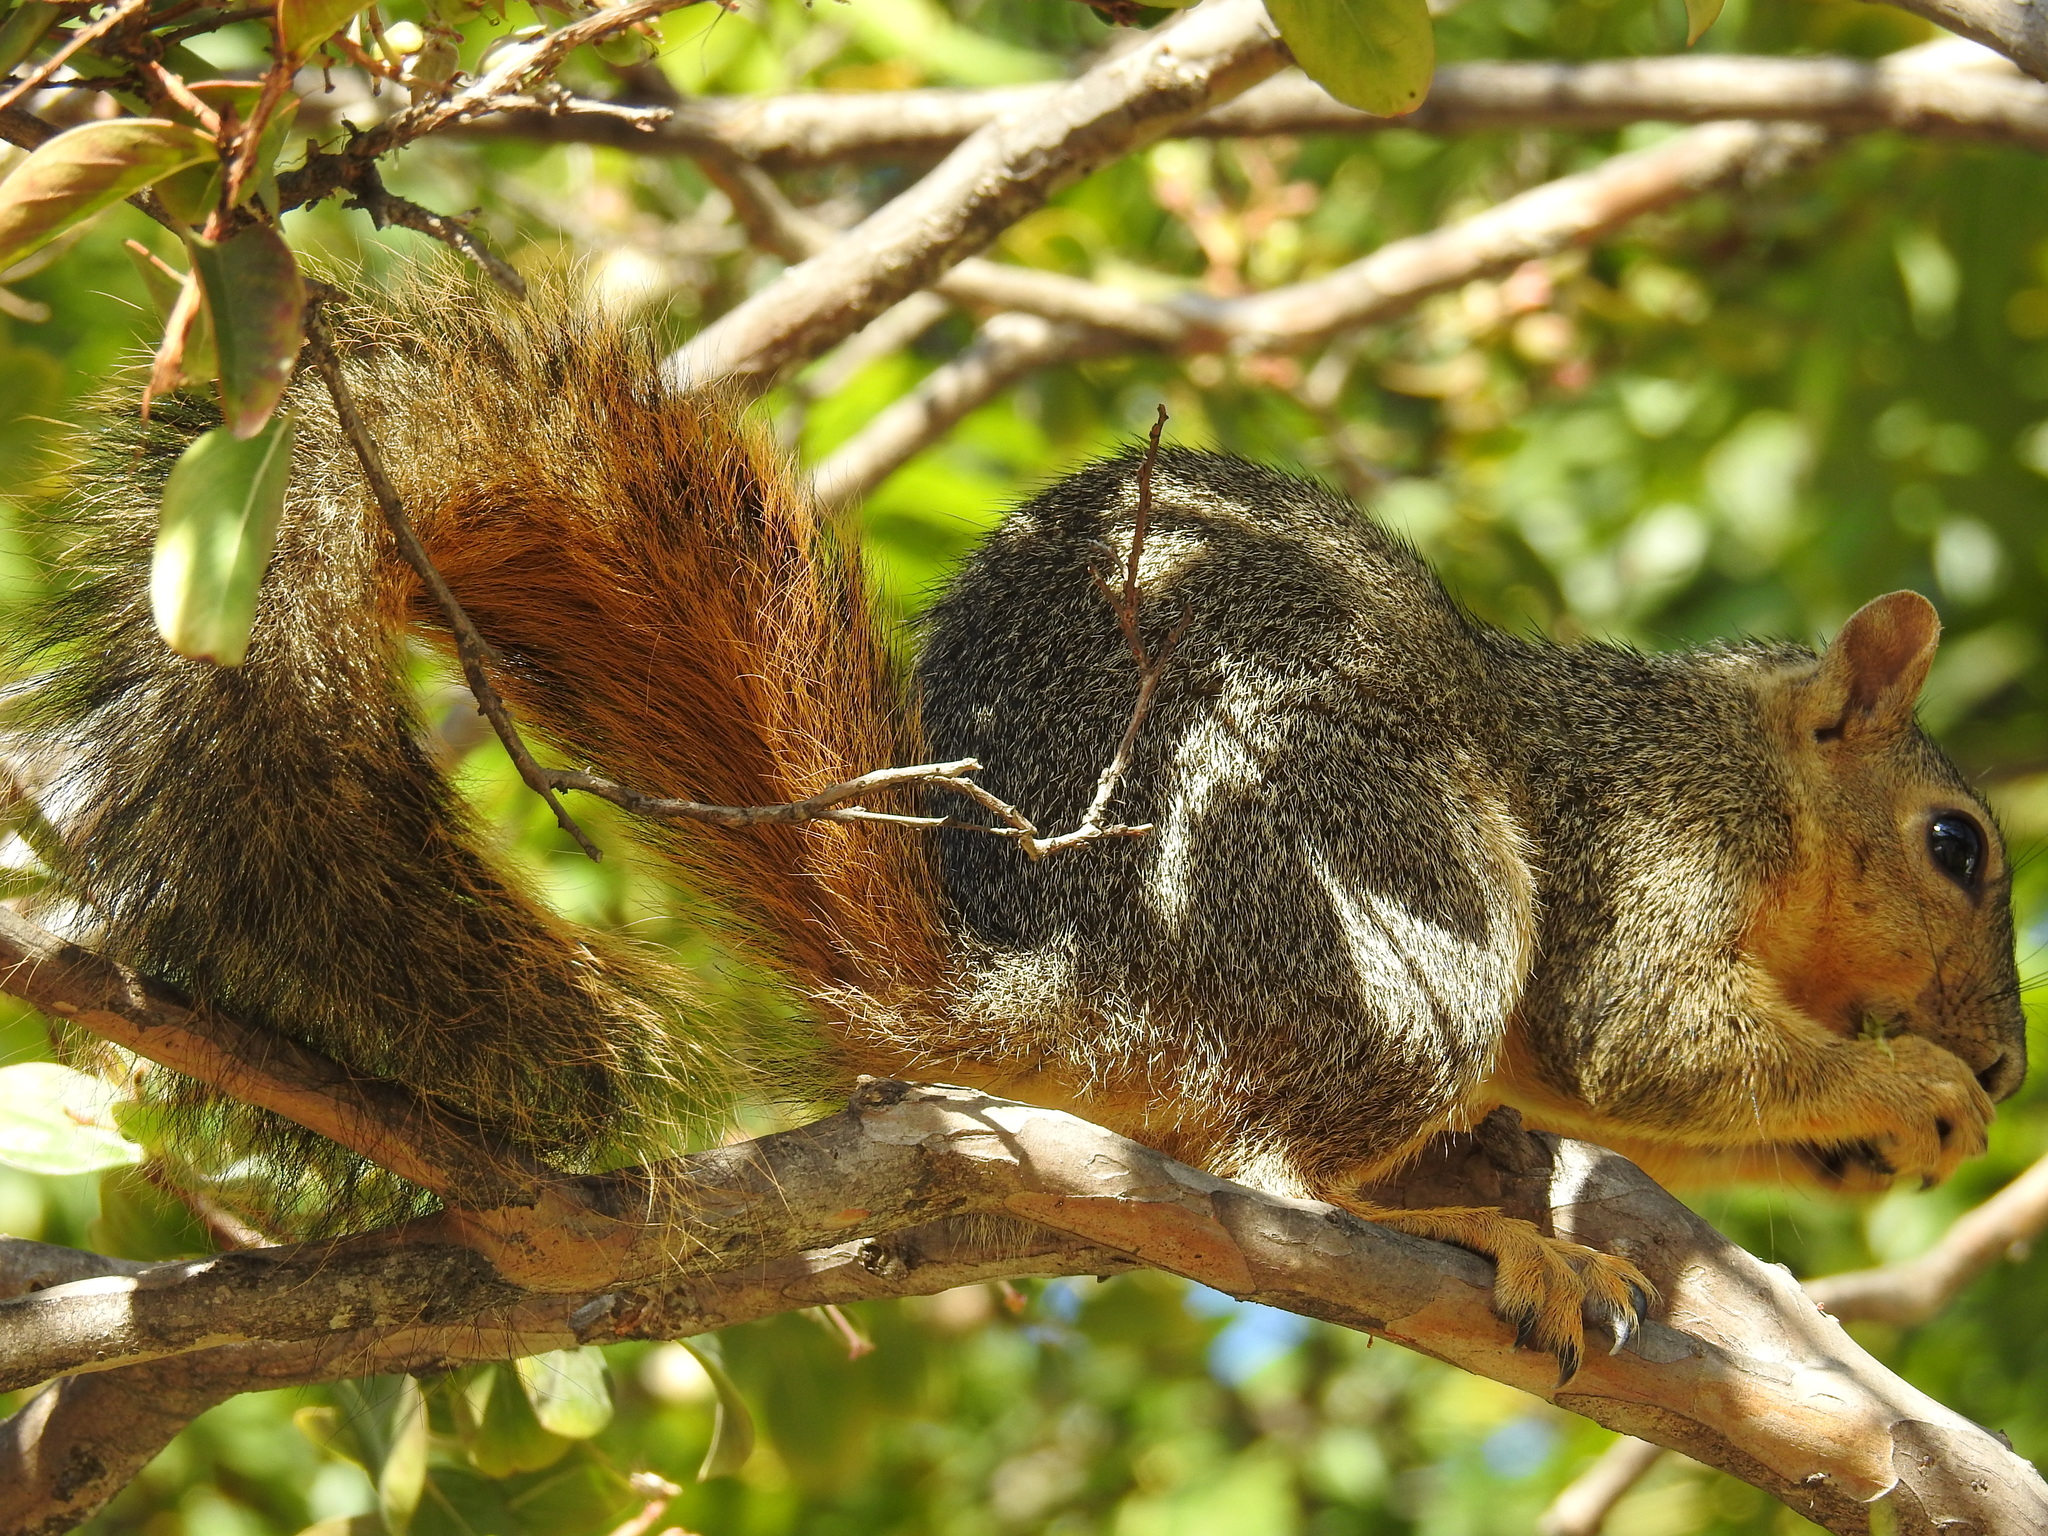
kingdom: Animalia
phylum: Chordata
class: Mammalia
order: Rodentia
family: Sciuridae
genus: Sciurus
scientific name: Sciurus niger
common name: Fox squirrel
